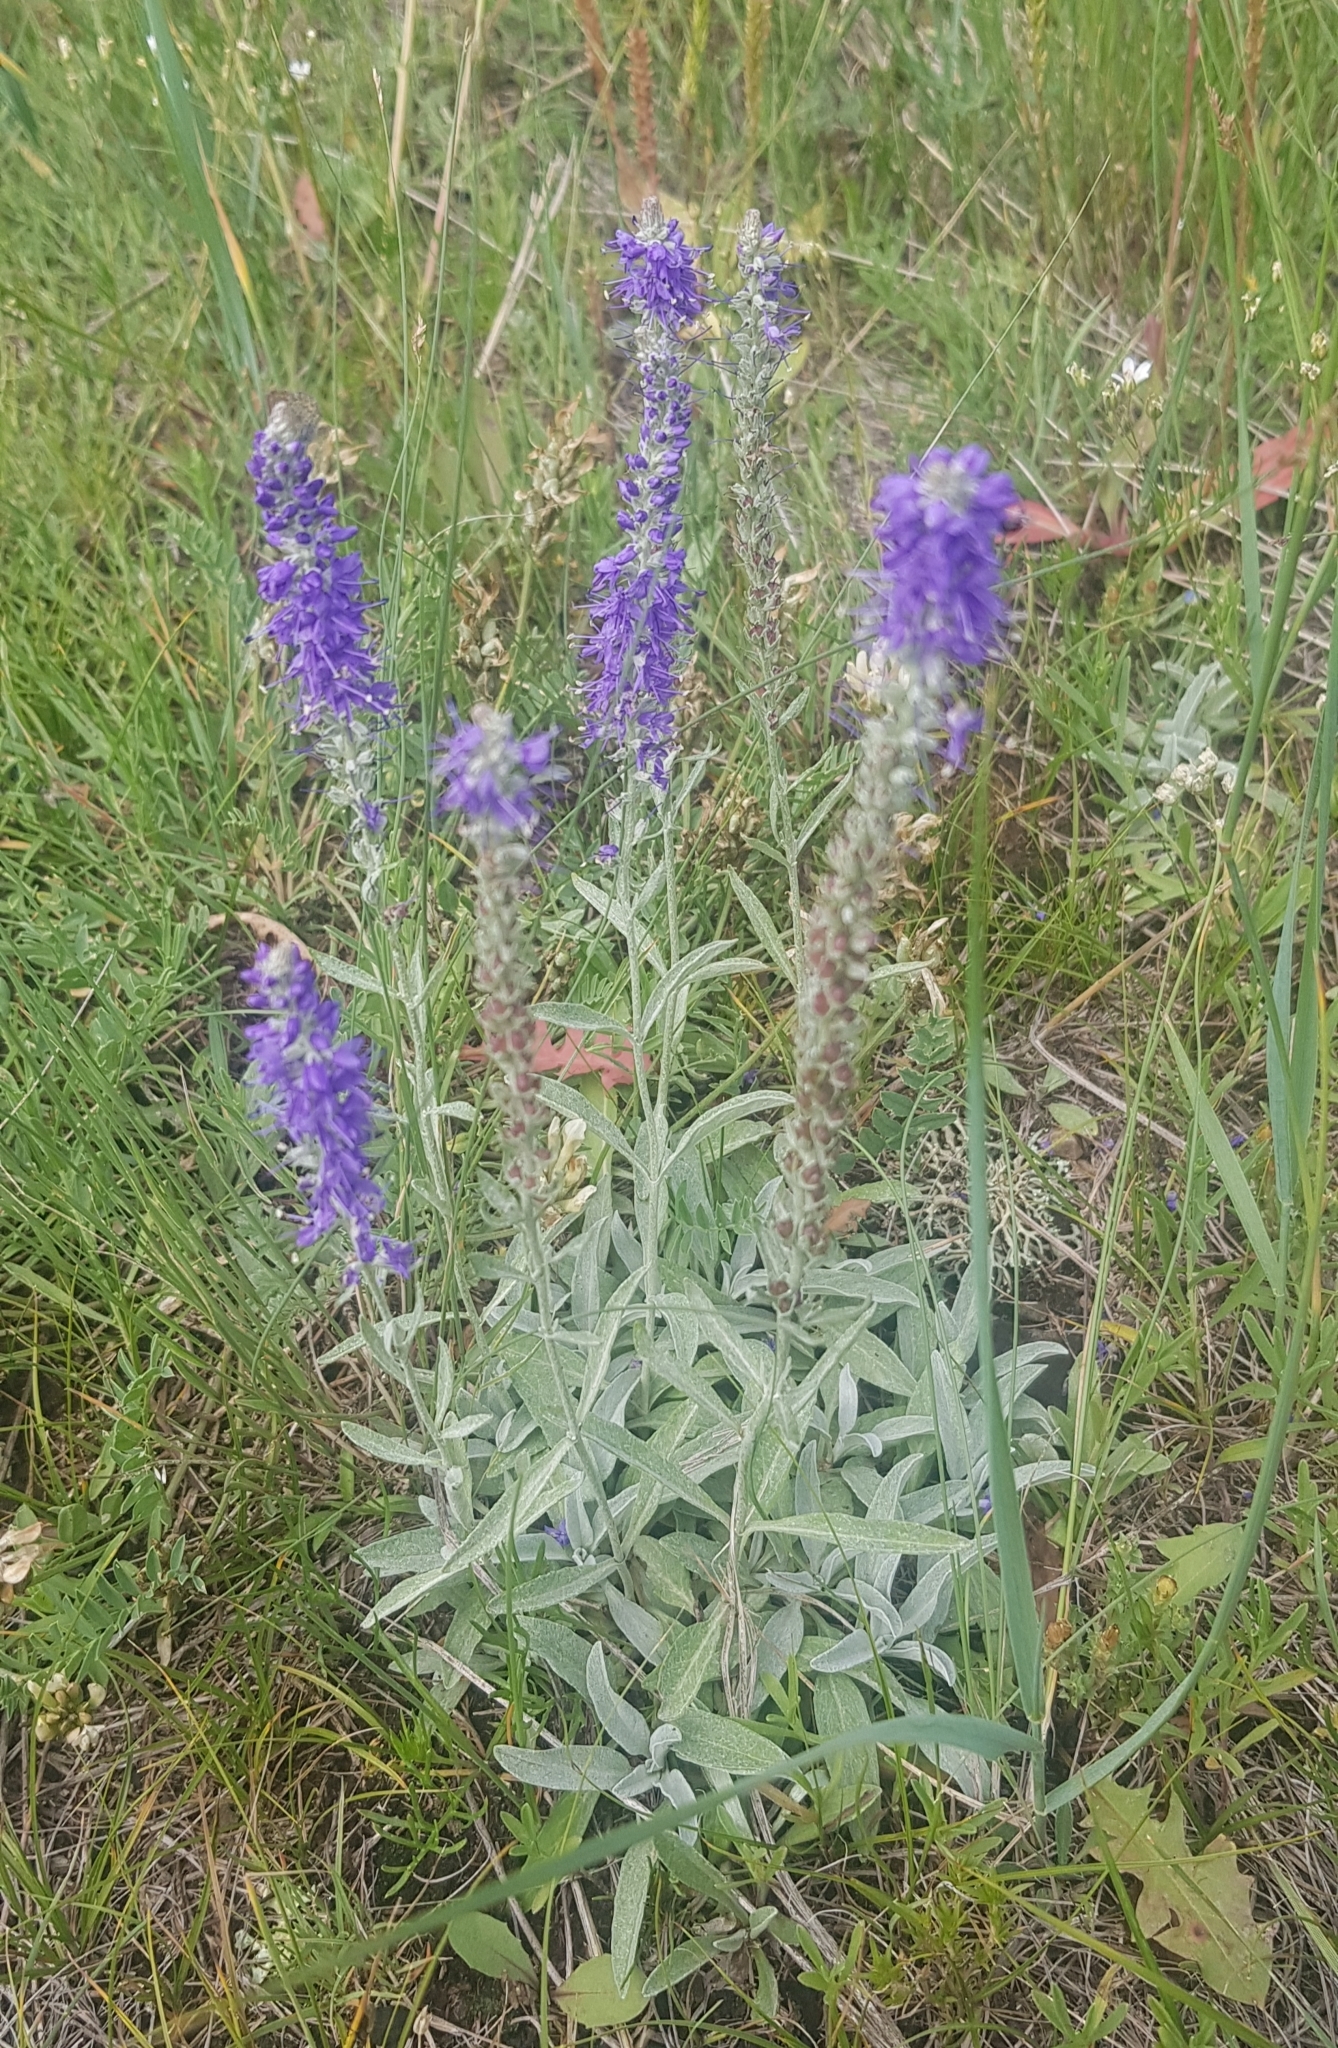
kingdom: Plantae
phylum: Tracheophyta
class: Magnoliopsida
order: Lamiales
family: Plantaginaceae
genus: Veronica
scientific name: Veronica incana
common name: Silver speedwell
